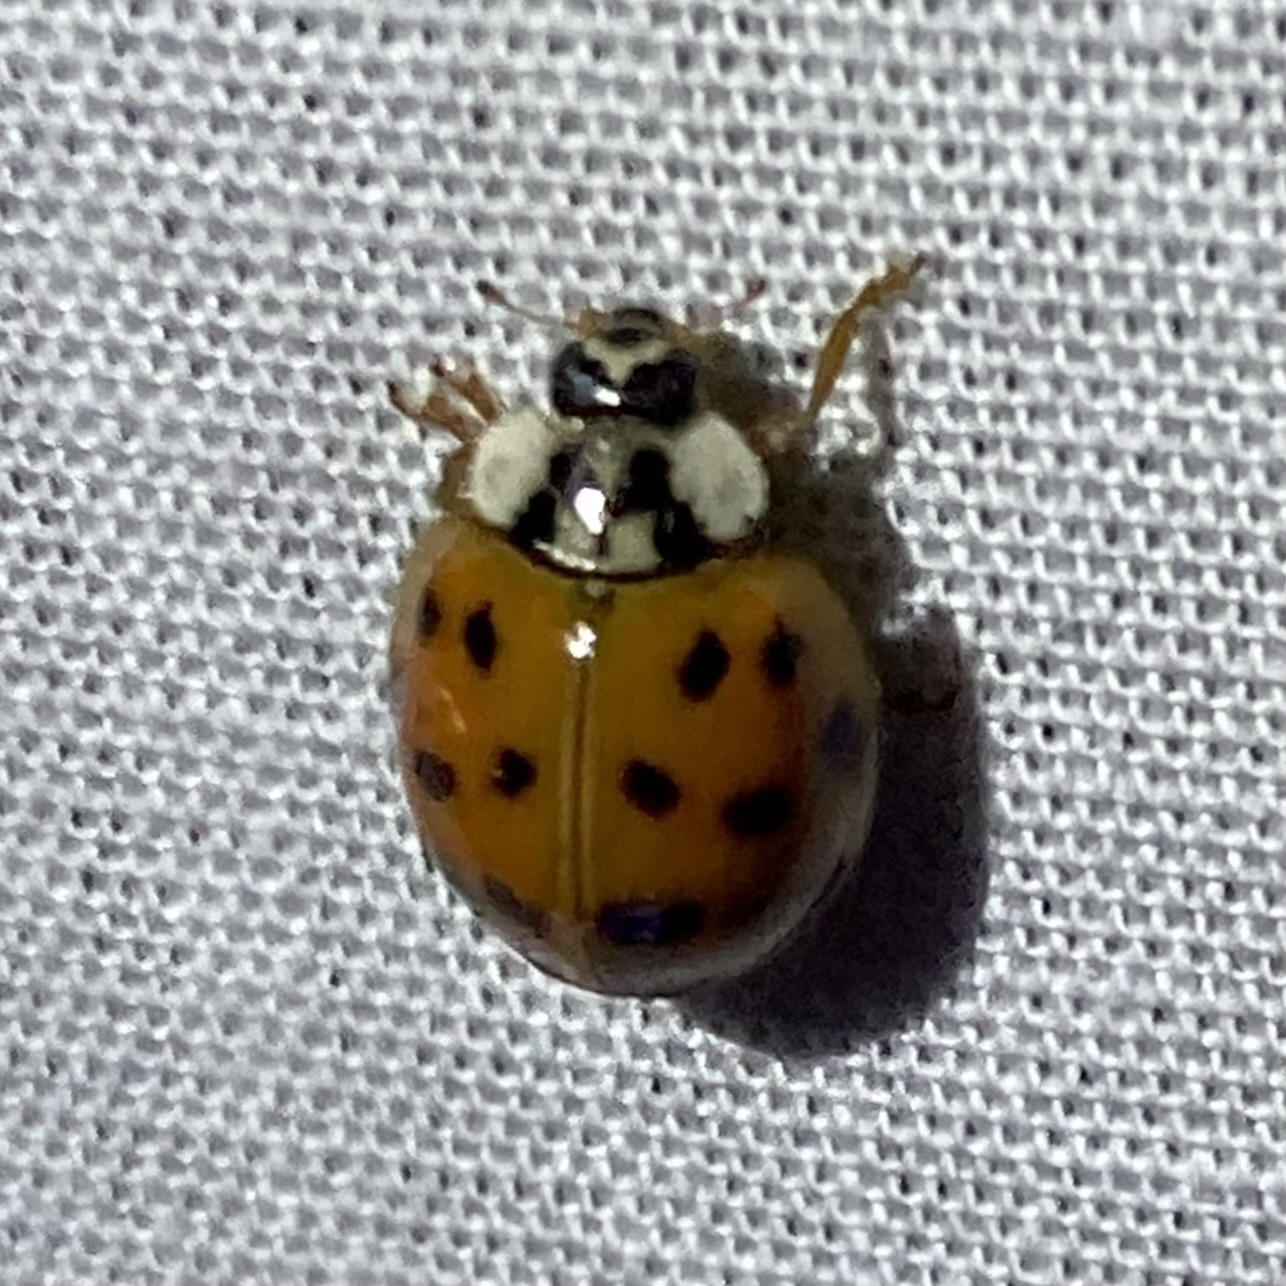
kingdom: Animalia
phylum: Arthropoda
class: Insecta
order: Coleoptera
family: Coccinellidae
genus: Harmonia
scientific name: Harmonia axyridis
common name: Harlequin ladybird
